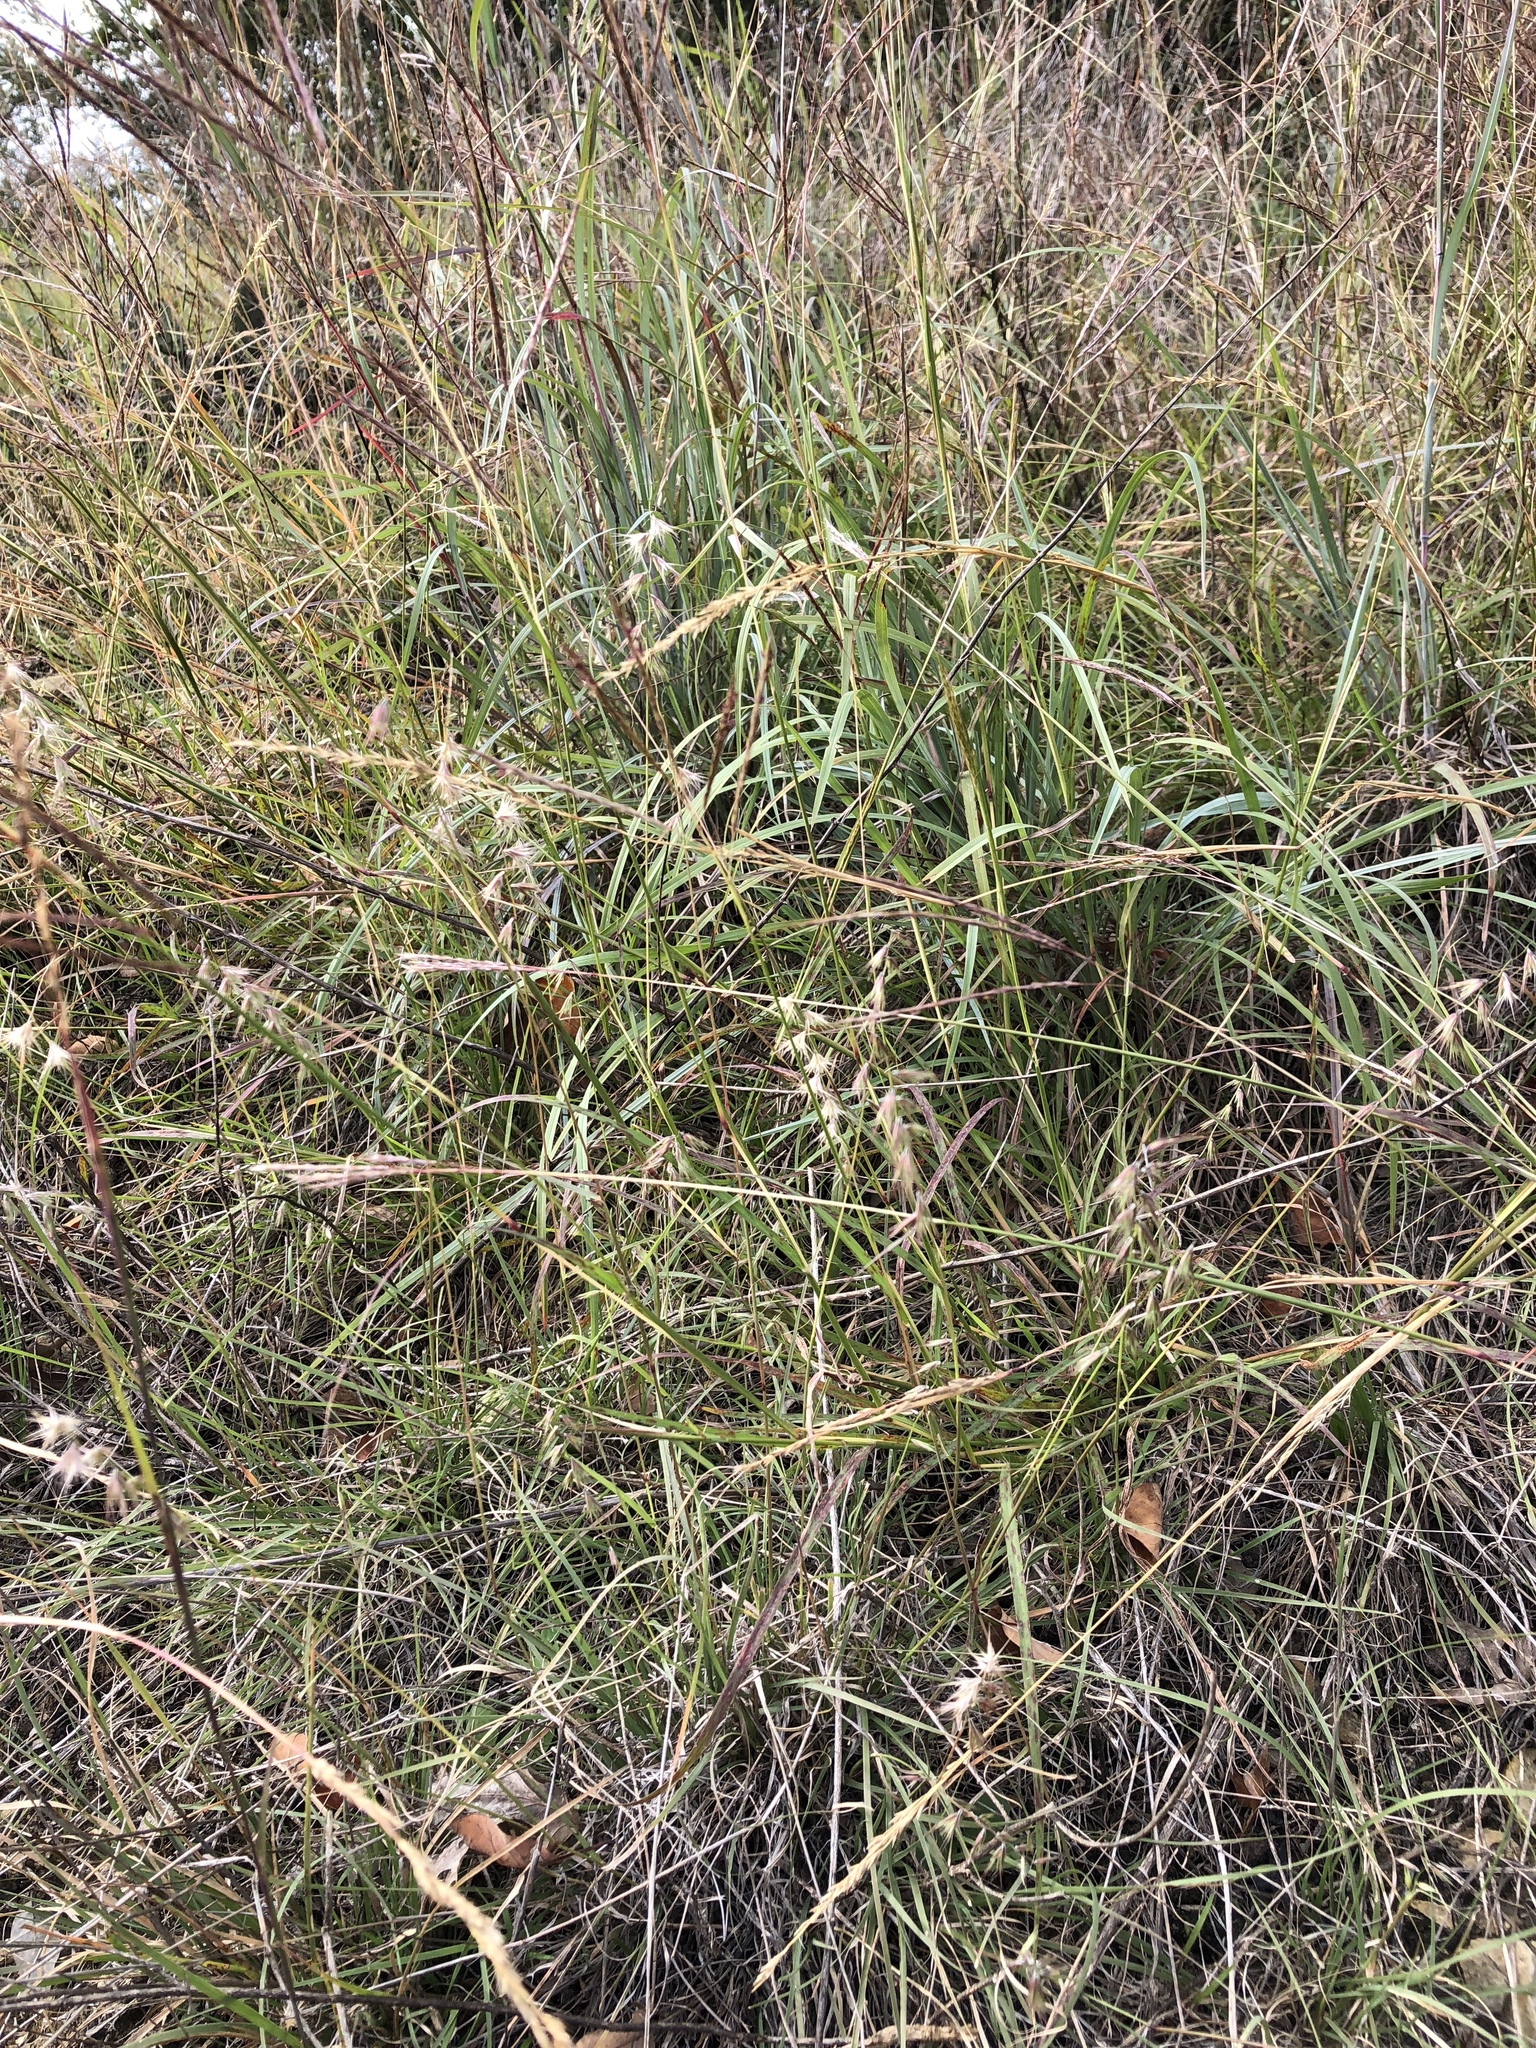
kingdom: Plantae
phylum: Tracheophyta
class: Liliopsida
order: Poales
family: Poaceae
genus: Bouteloua
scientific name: Bouteloua rigidiseta
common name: Texas grama
